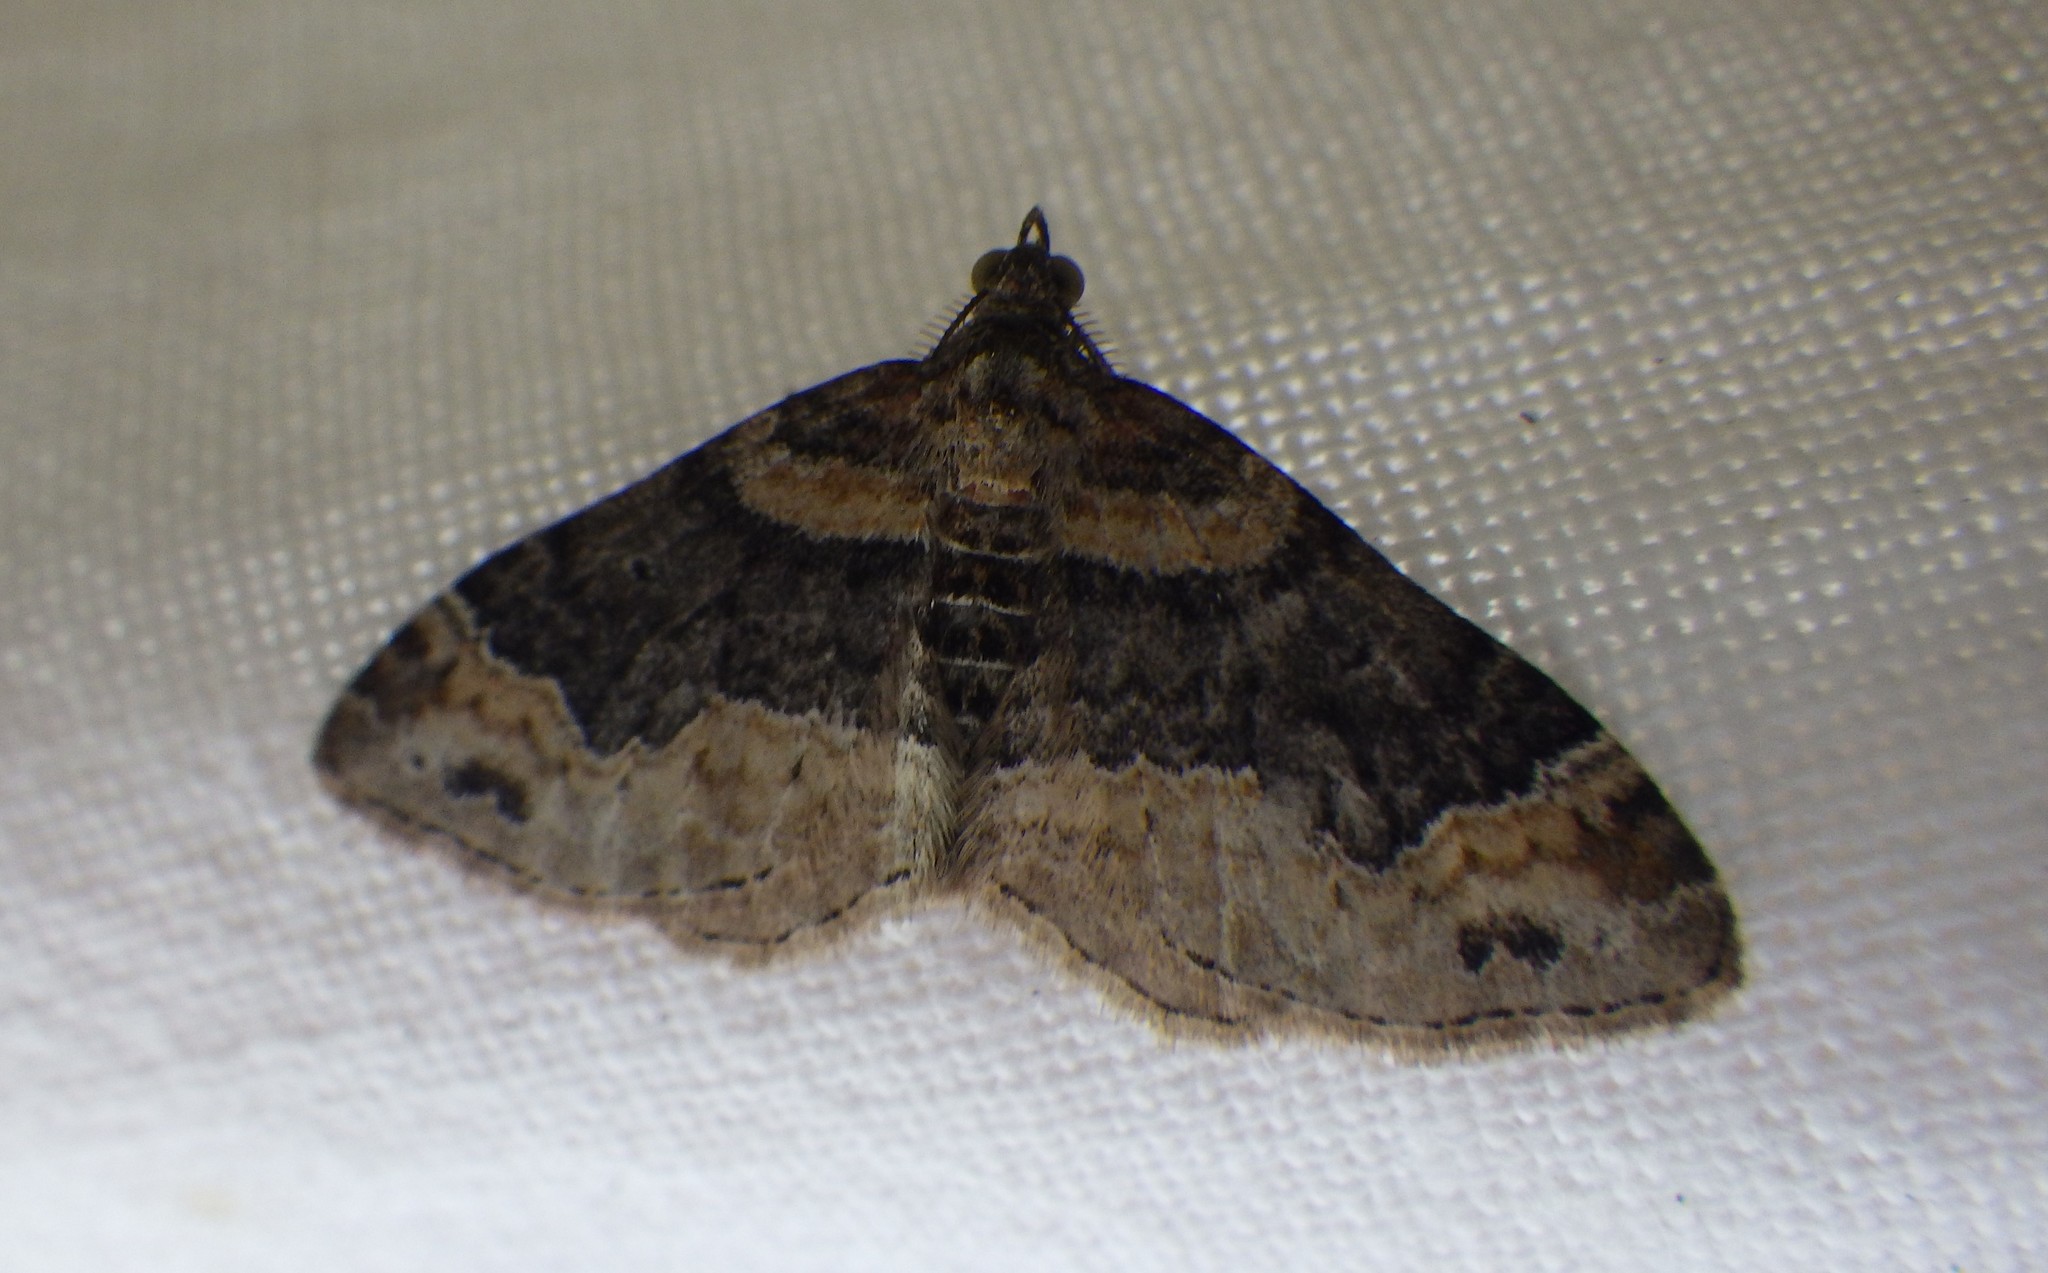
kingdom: Animalia
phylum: Arthropoda
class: Insecta
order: Lepidoptera
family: Geometridae
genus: Xanthorhoe
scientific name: Xanthorhoe ferrugata
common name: Dark-barred twin-spot carpet
